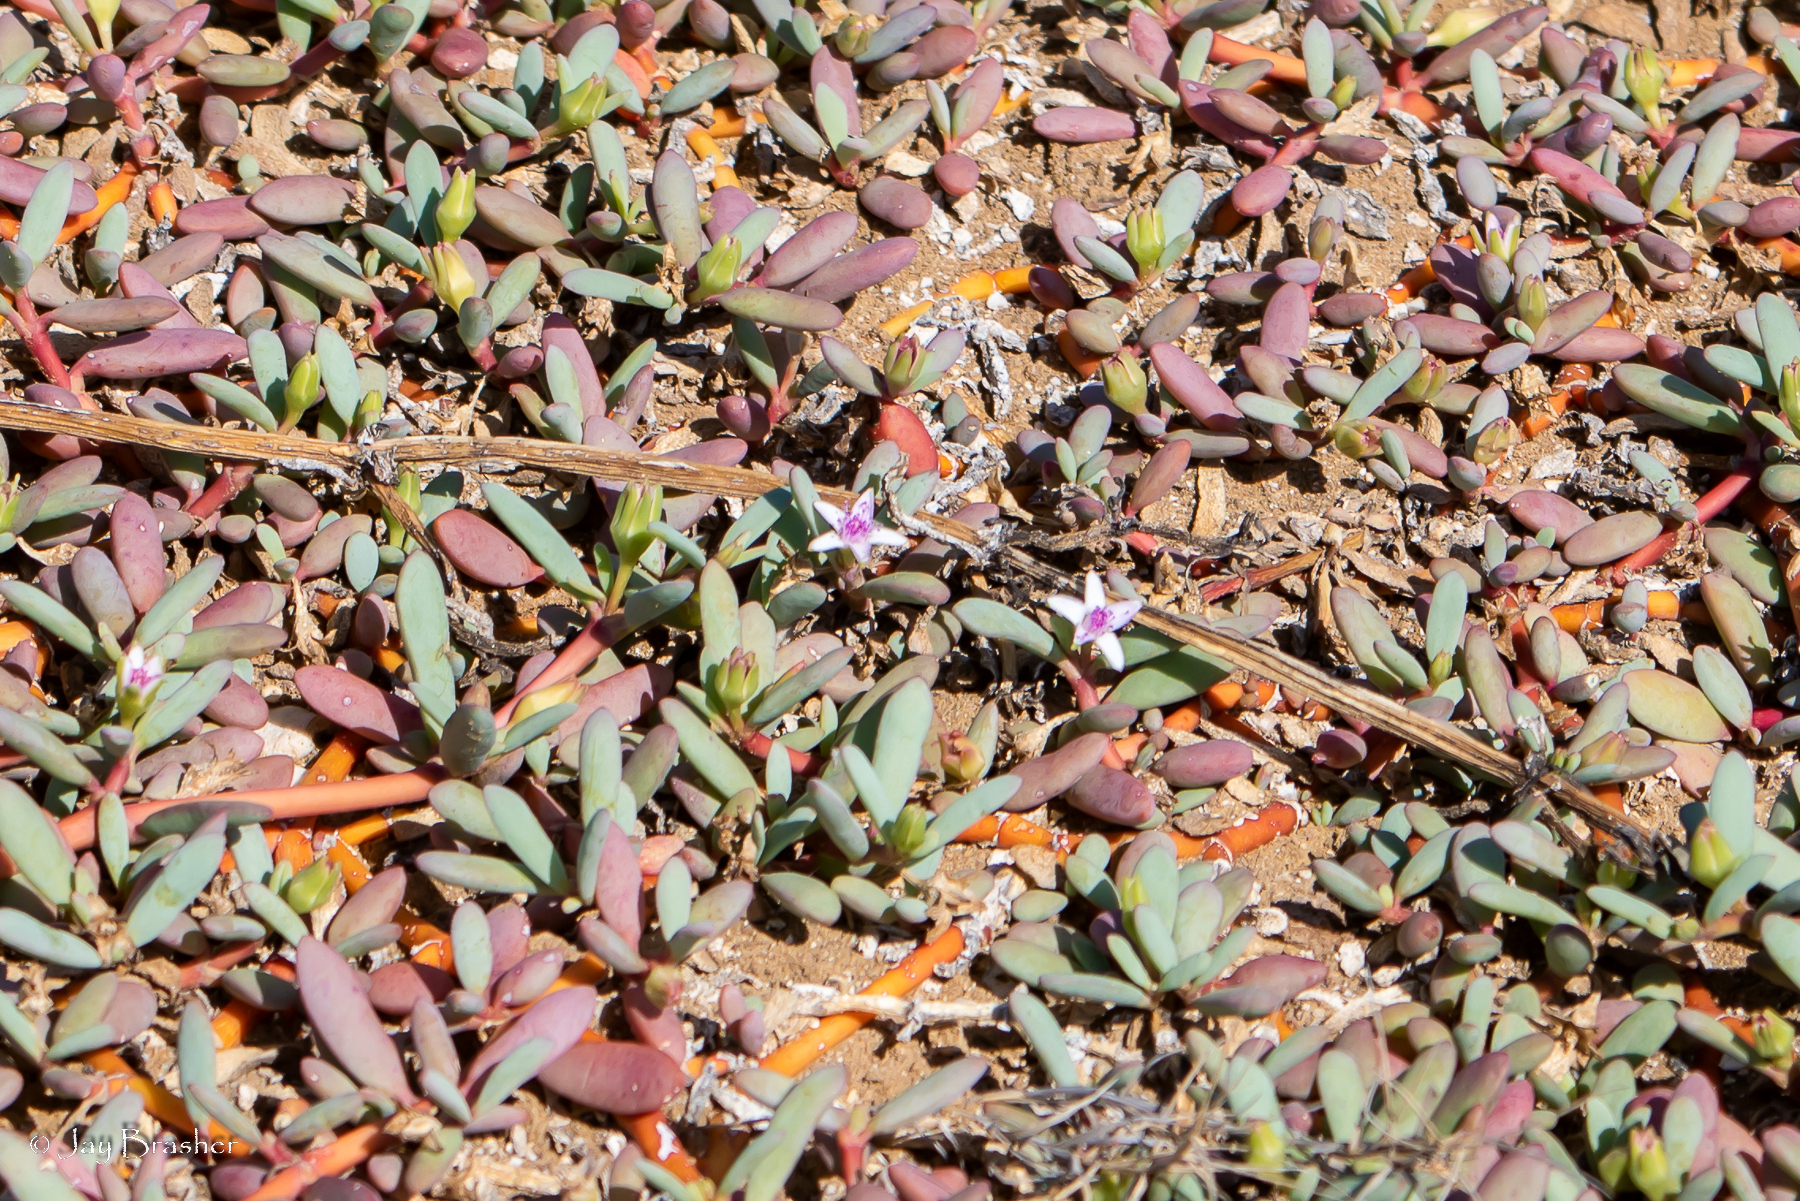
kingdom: Plantae
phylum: Tracheophyta
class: Magnoliopsida
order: Caryophyllales
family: Aizoaceae
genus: Sesuvium
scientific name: Sesuvium portulacastrum
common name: Sea-purslane
